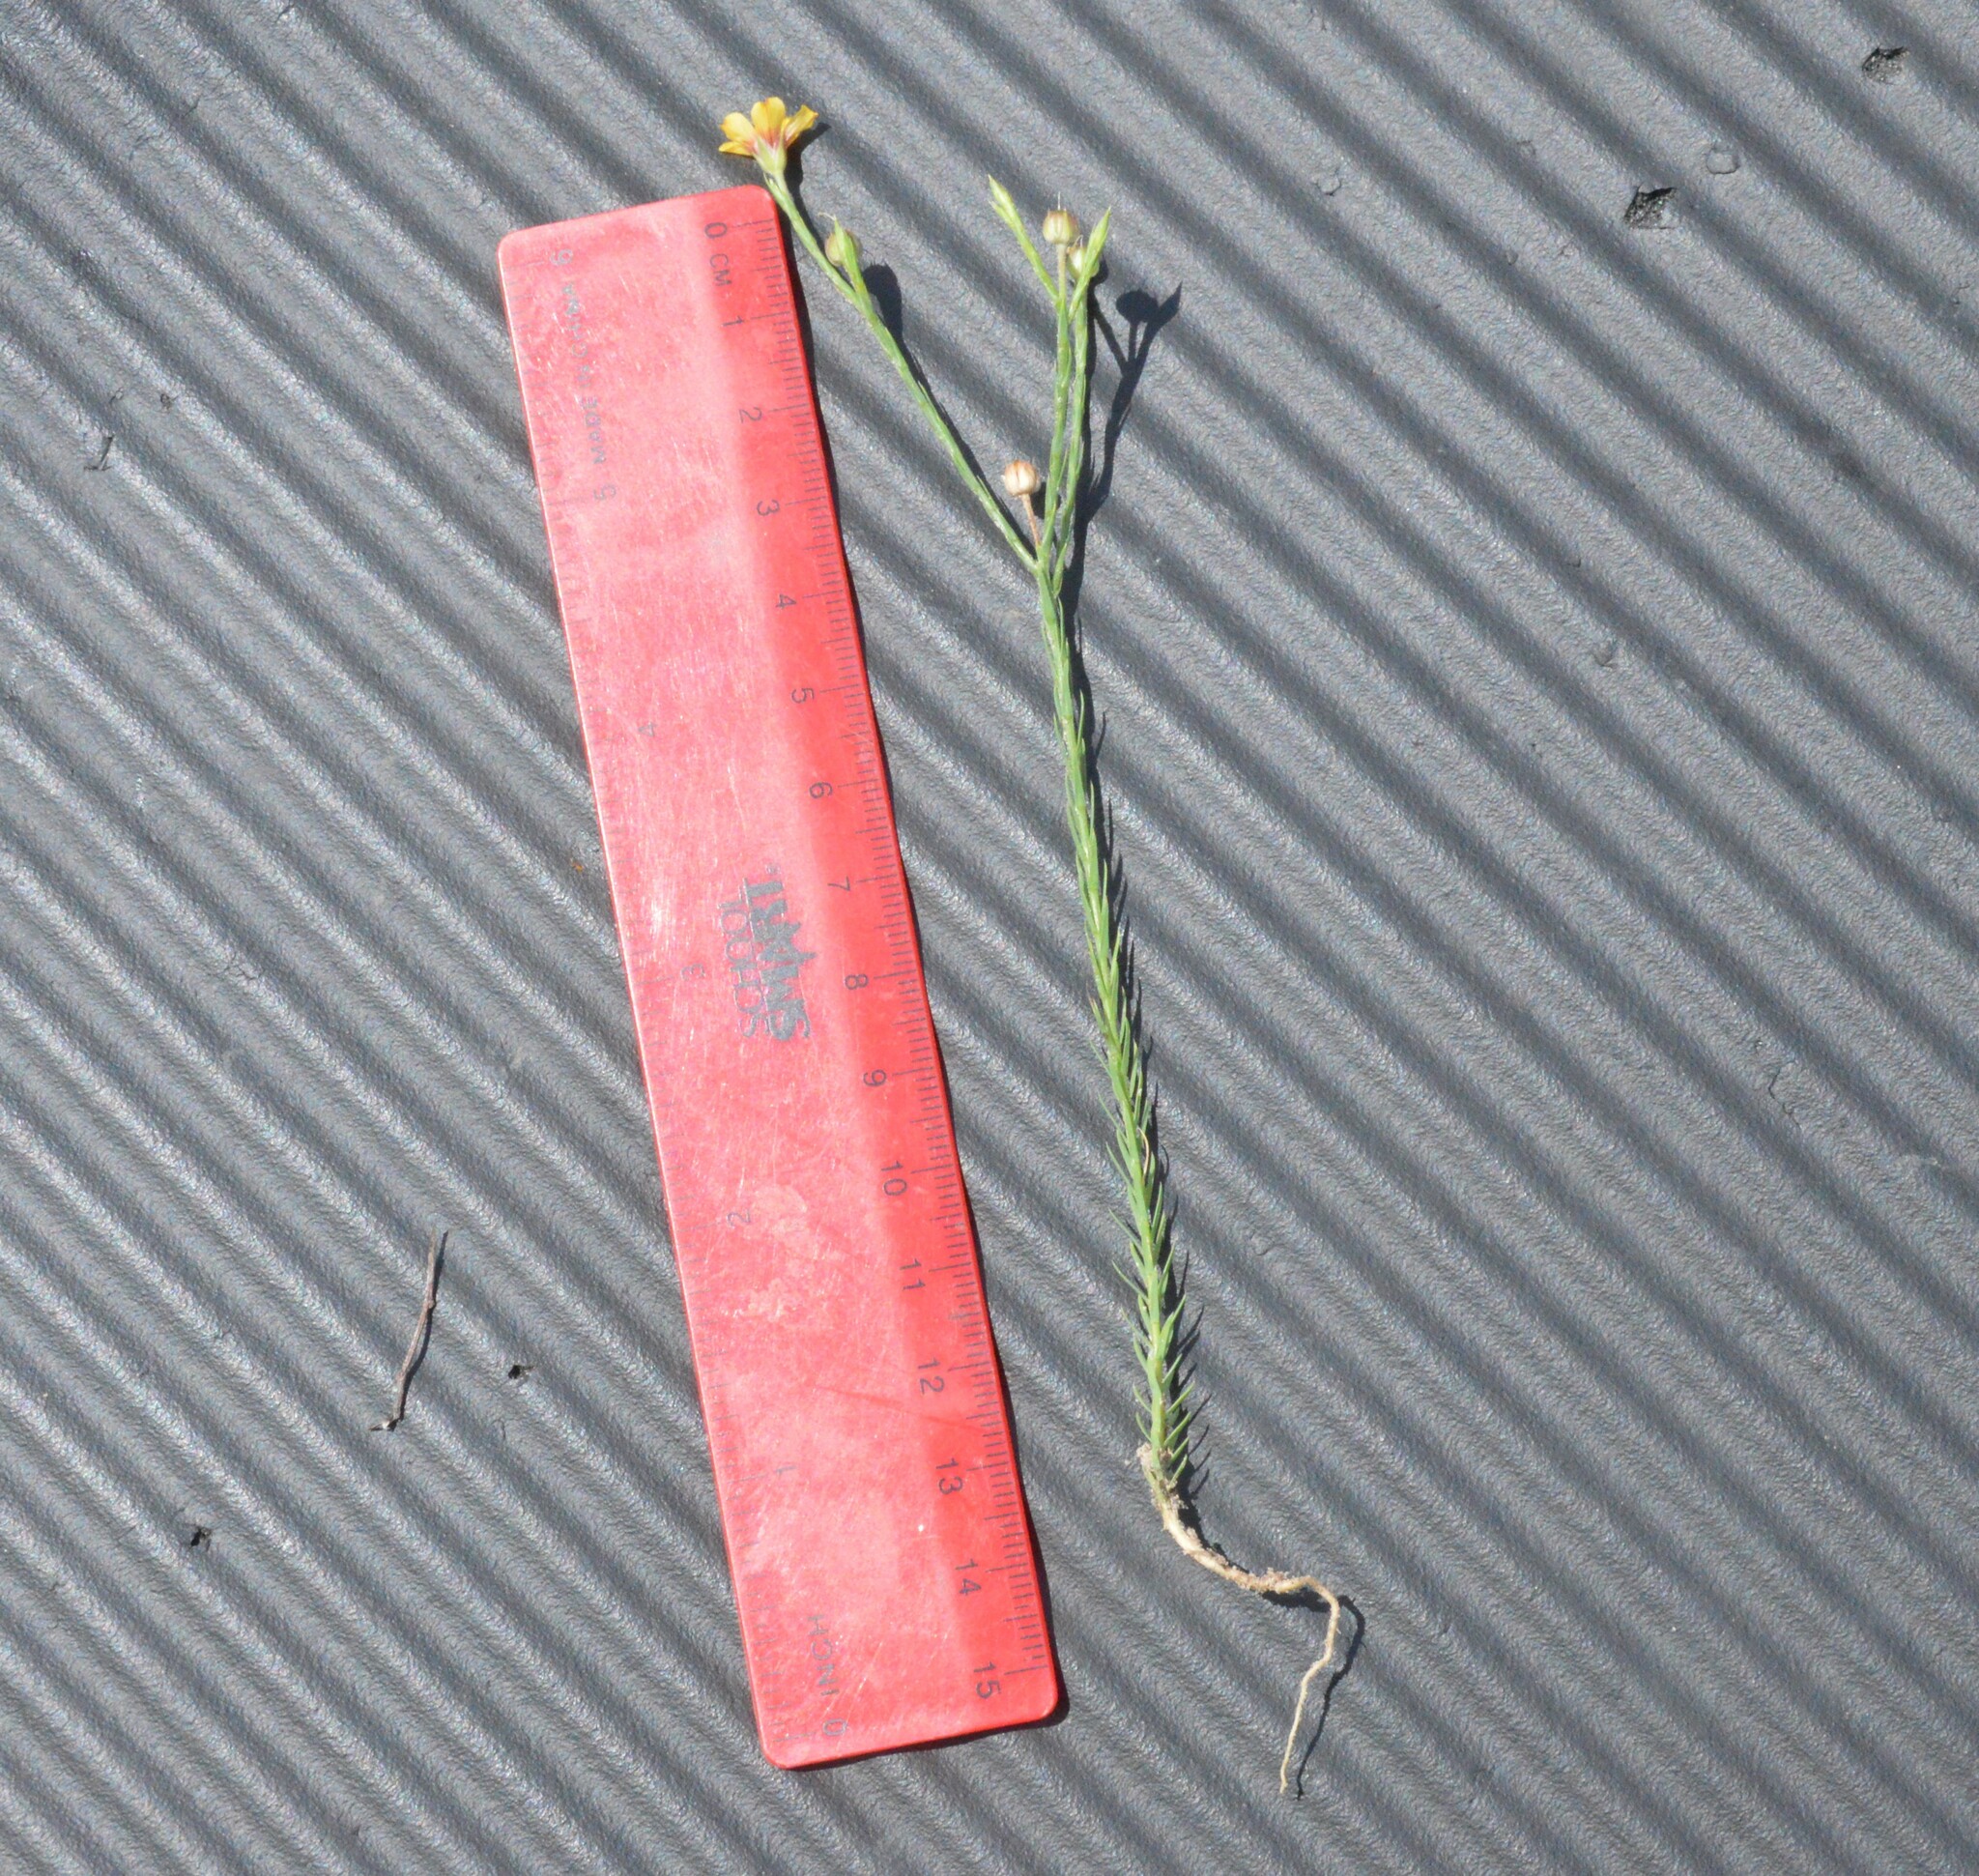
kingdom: Plantae
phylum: Tracheophyta
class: Magnoliopsida
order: Malpighiales
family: Linaceae
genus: Linum
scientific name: Linum imbricatum
